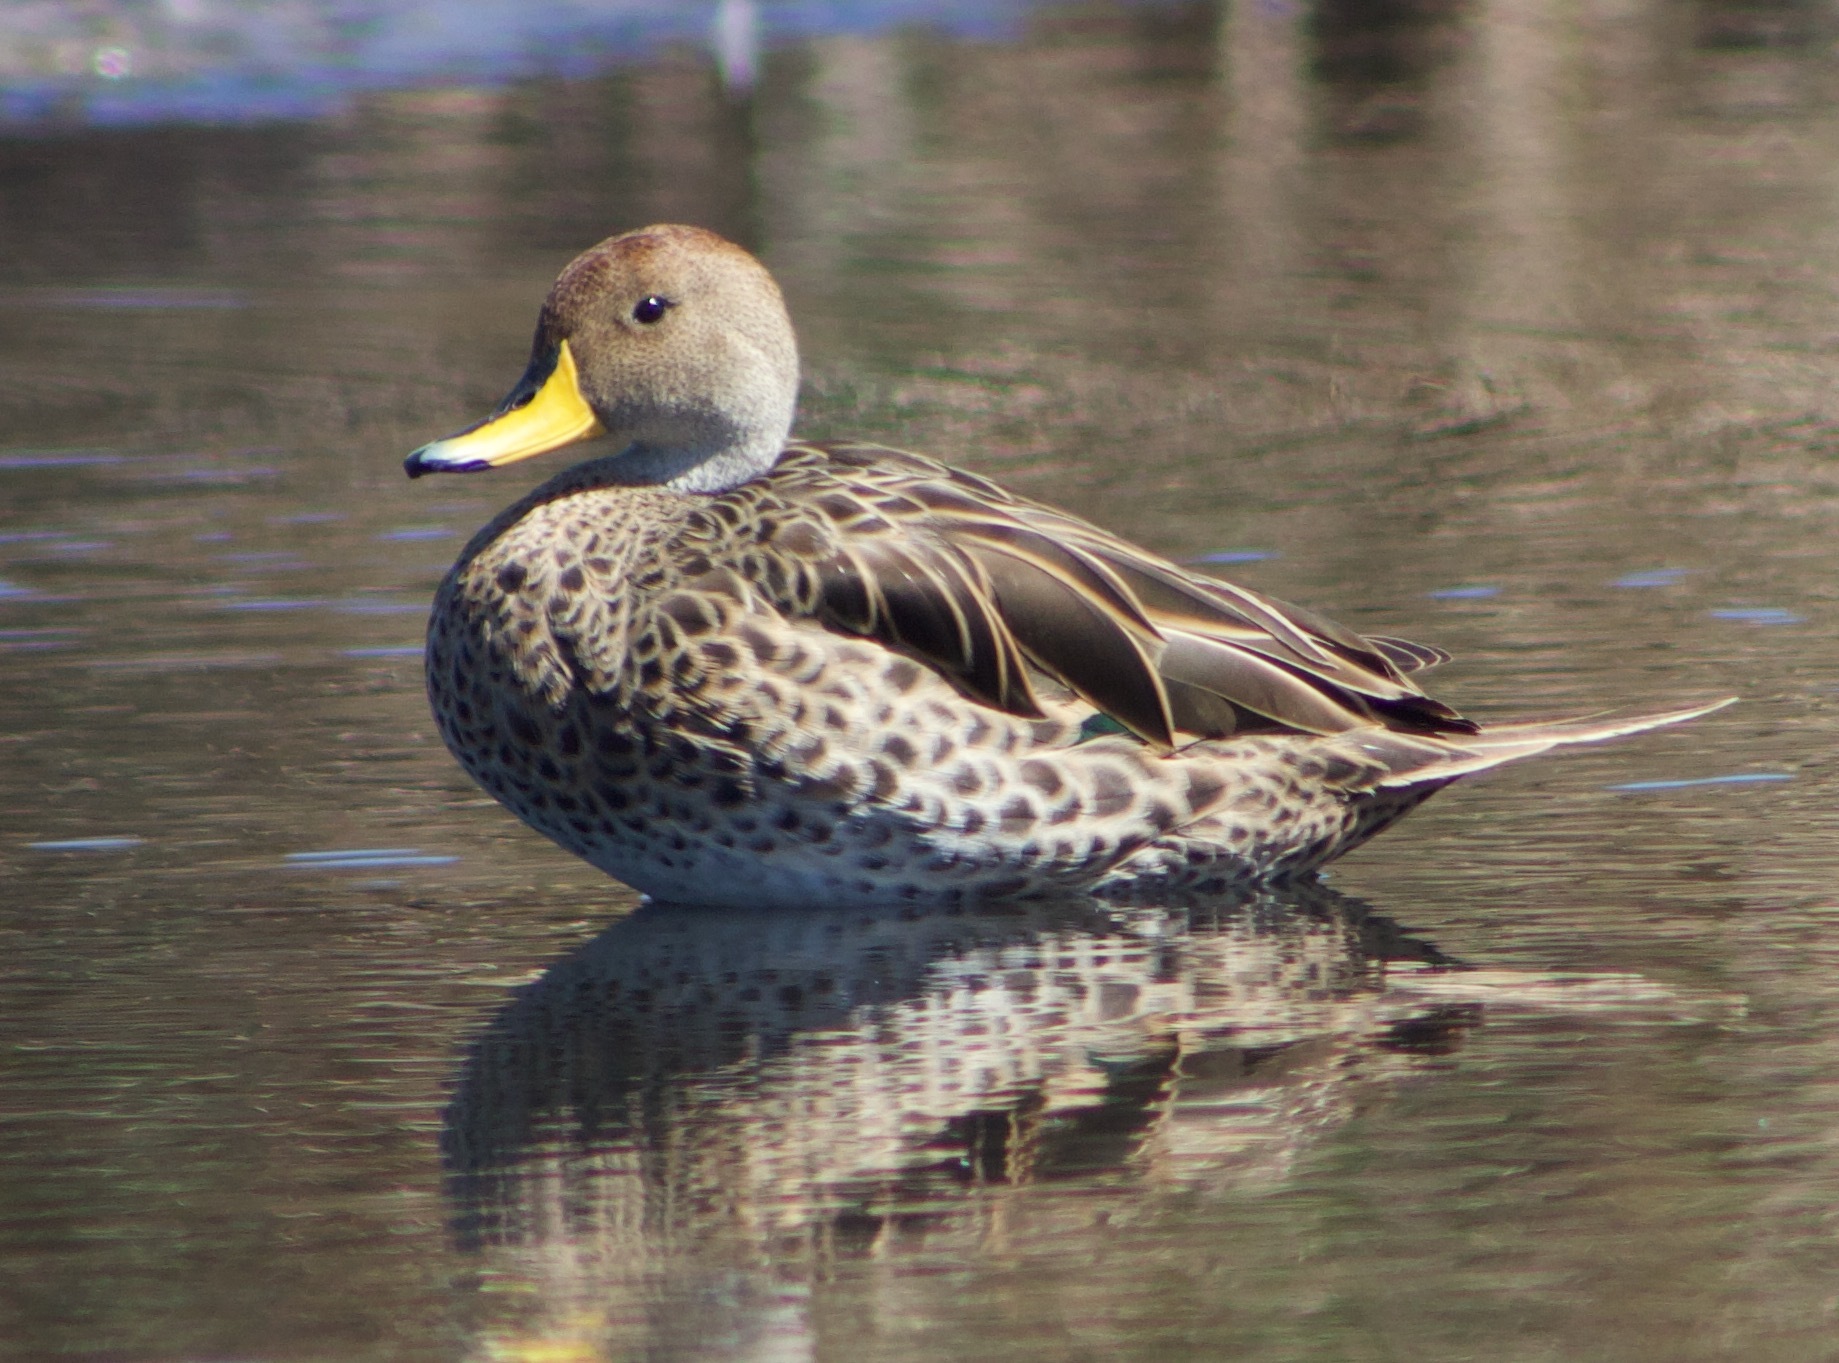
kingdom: Animalia
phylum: Chordata
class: Aves
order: Anseriformes
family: Anatidae
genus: Anas
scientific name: Anas georgica
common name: Yellow-billed pintail
